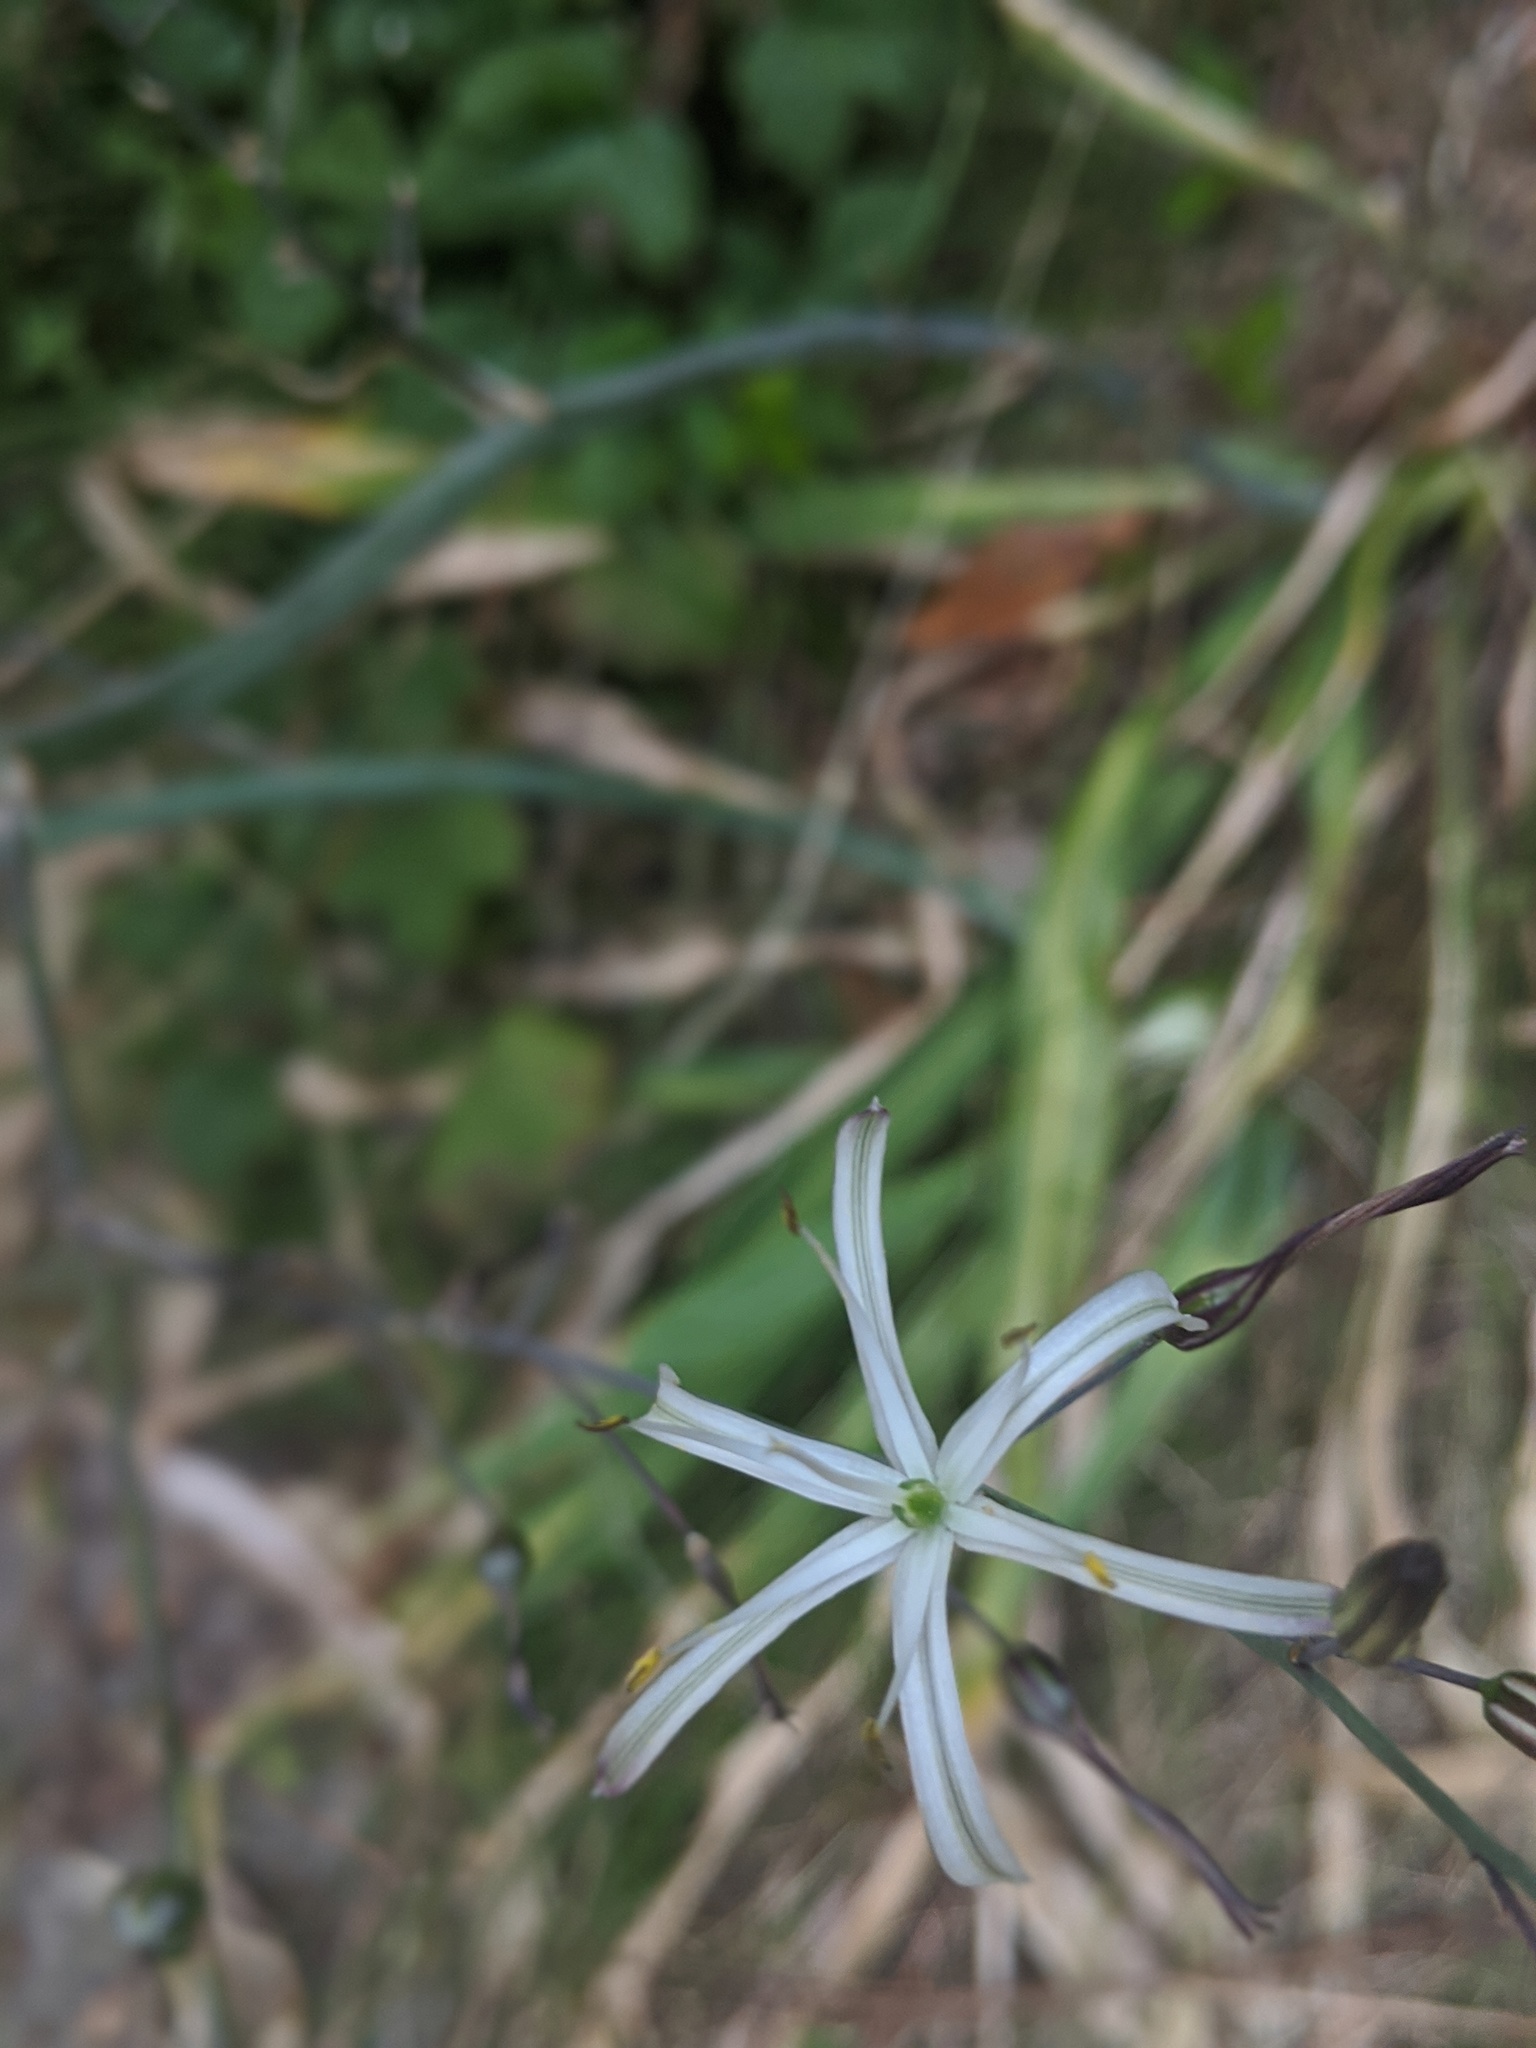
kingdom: Plantae
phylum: Tracheophyta
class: Liliopsida
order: Asparagales
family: Asparagaceae
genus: Chlorogalum
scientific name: Chlorogalum pomeridianum
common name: Amole
